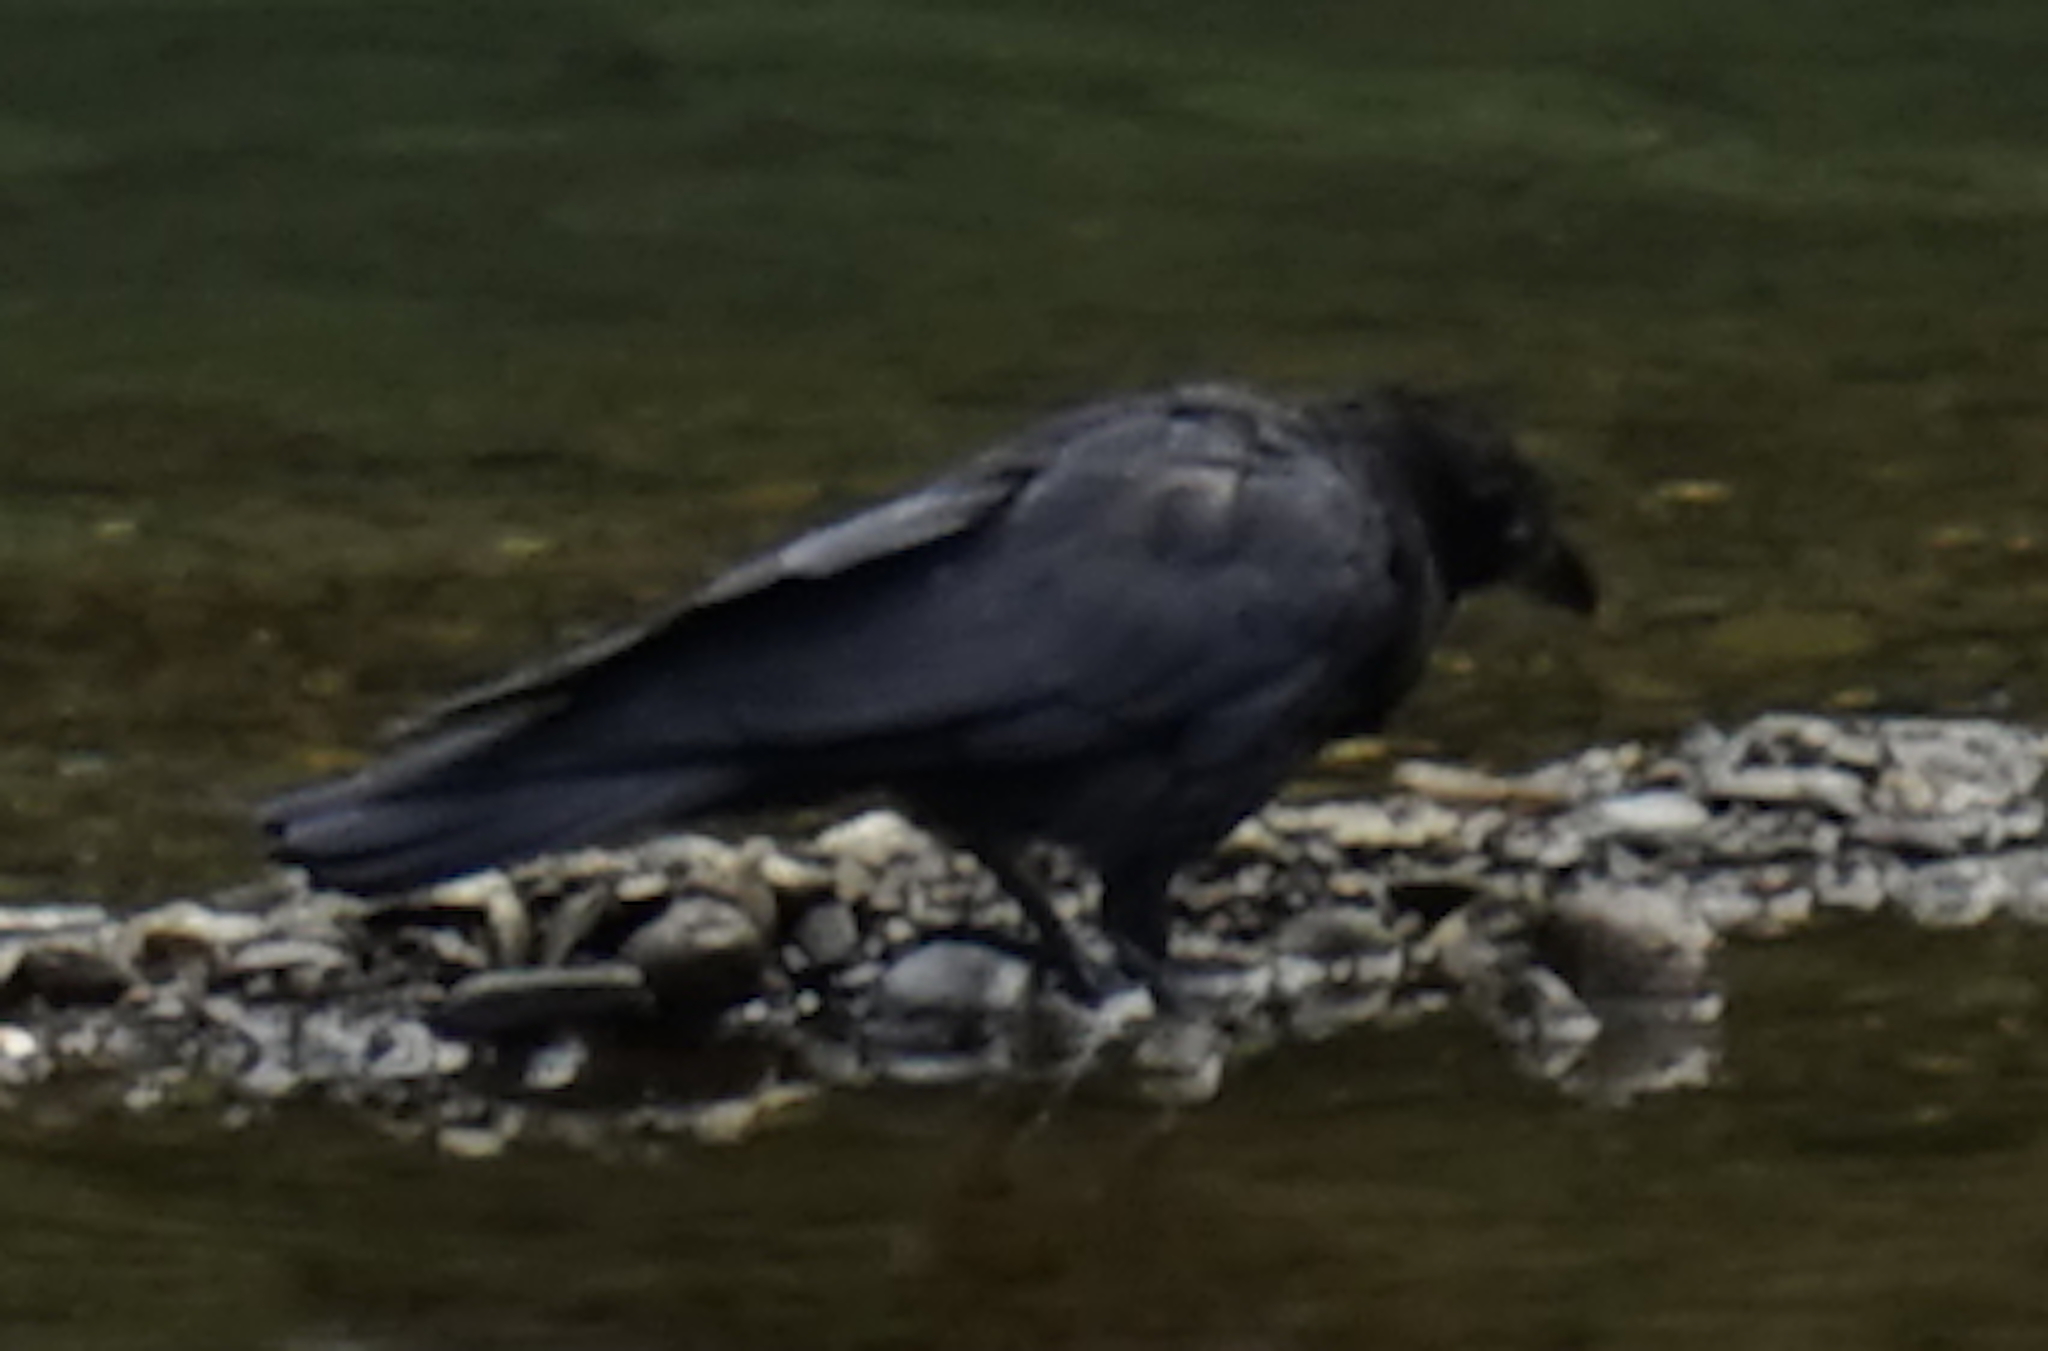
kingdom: Animalia
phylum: Chordata
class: Aves
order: Passeriformes
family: Corvidae
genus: Corvus
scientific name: Corvus macrorhynchos
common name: Large-billed crow
